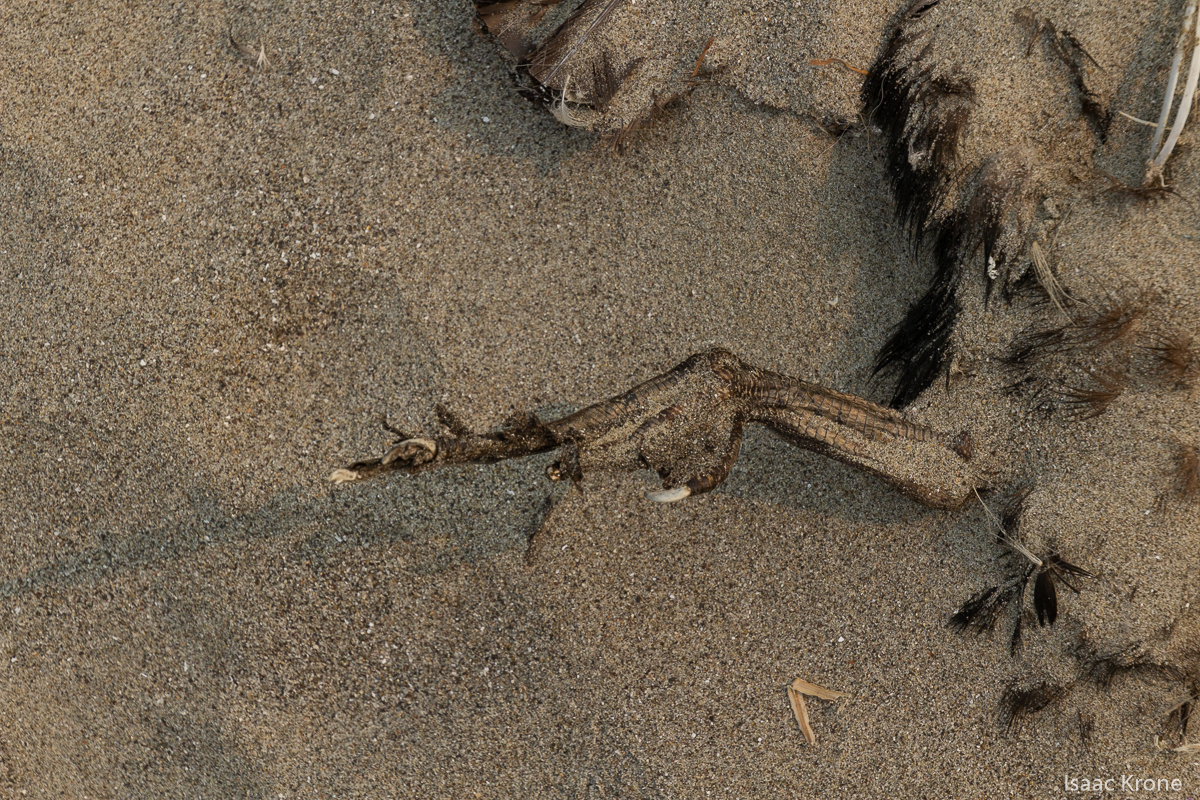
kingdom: Animalia
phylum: Chordata
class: Aves
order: Suliformes
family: Phalacrocoracidae
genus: Urile
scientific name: Urile penicillatus
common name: Brandt's cormorant
